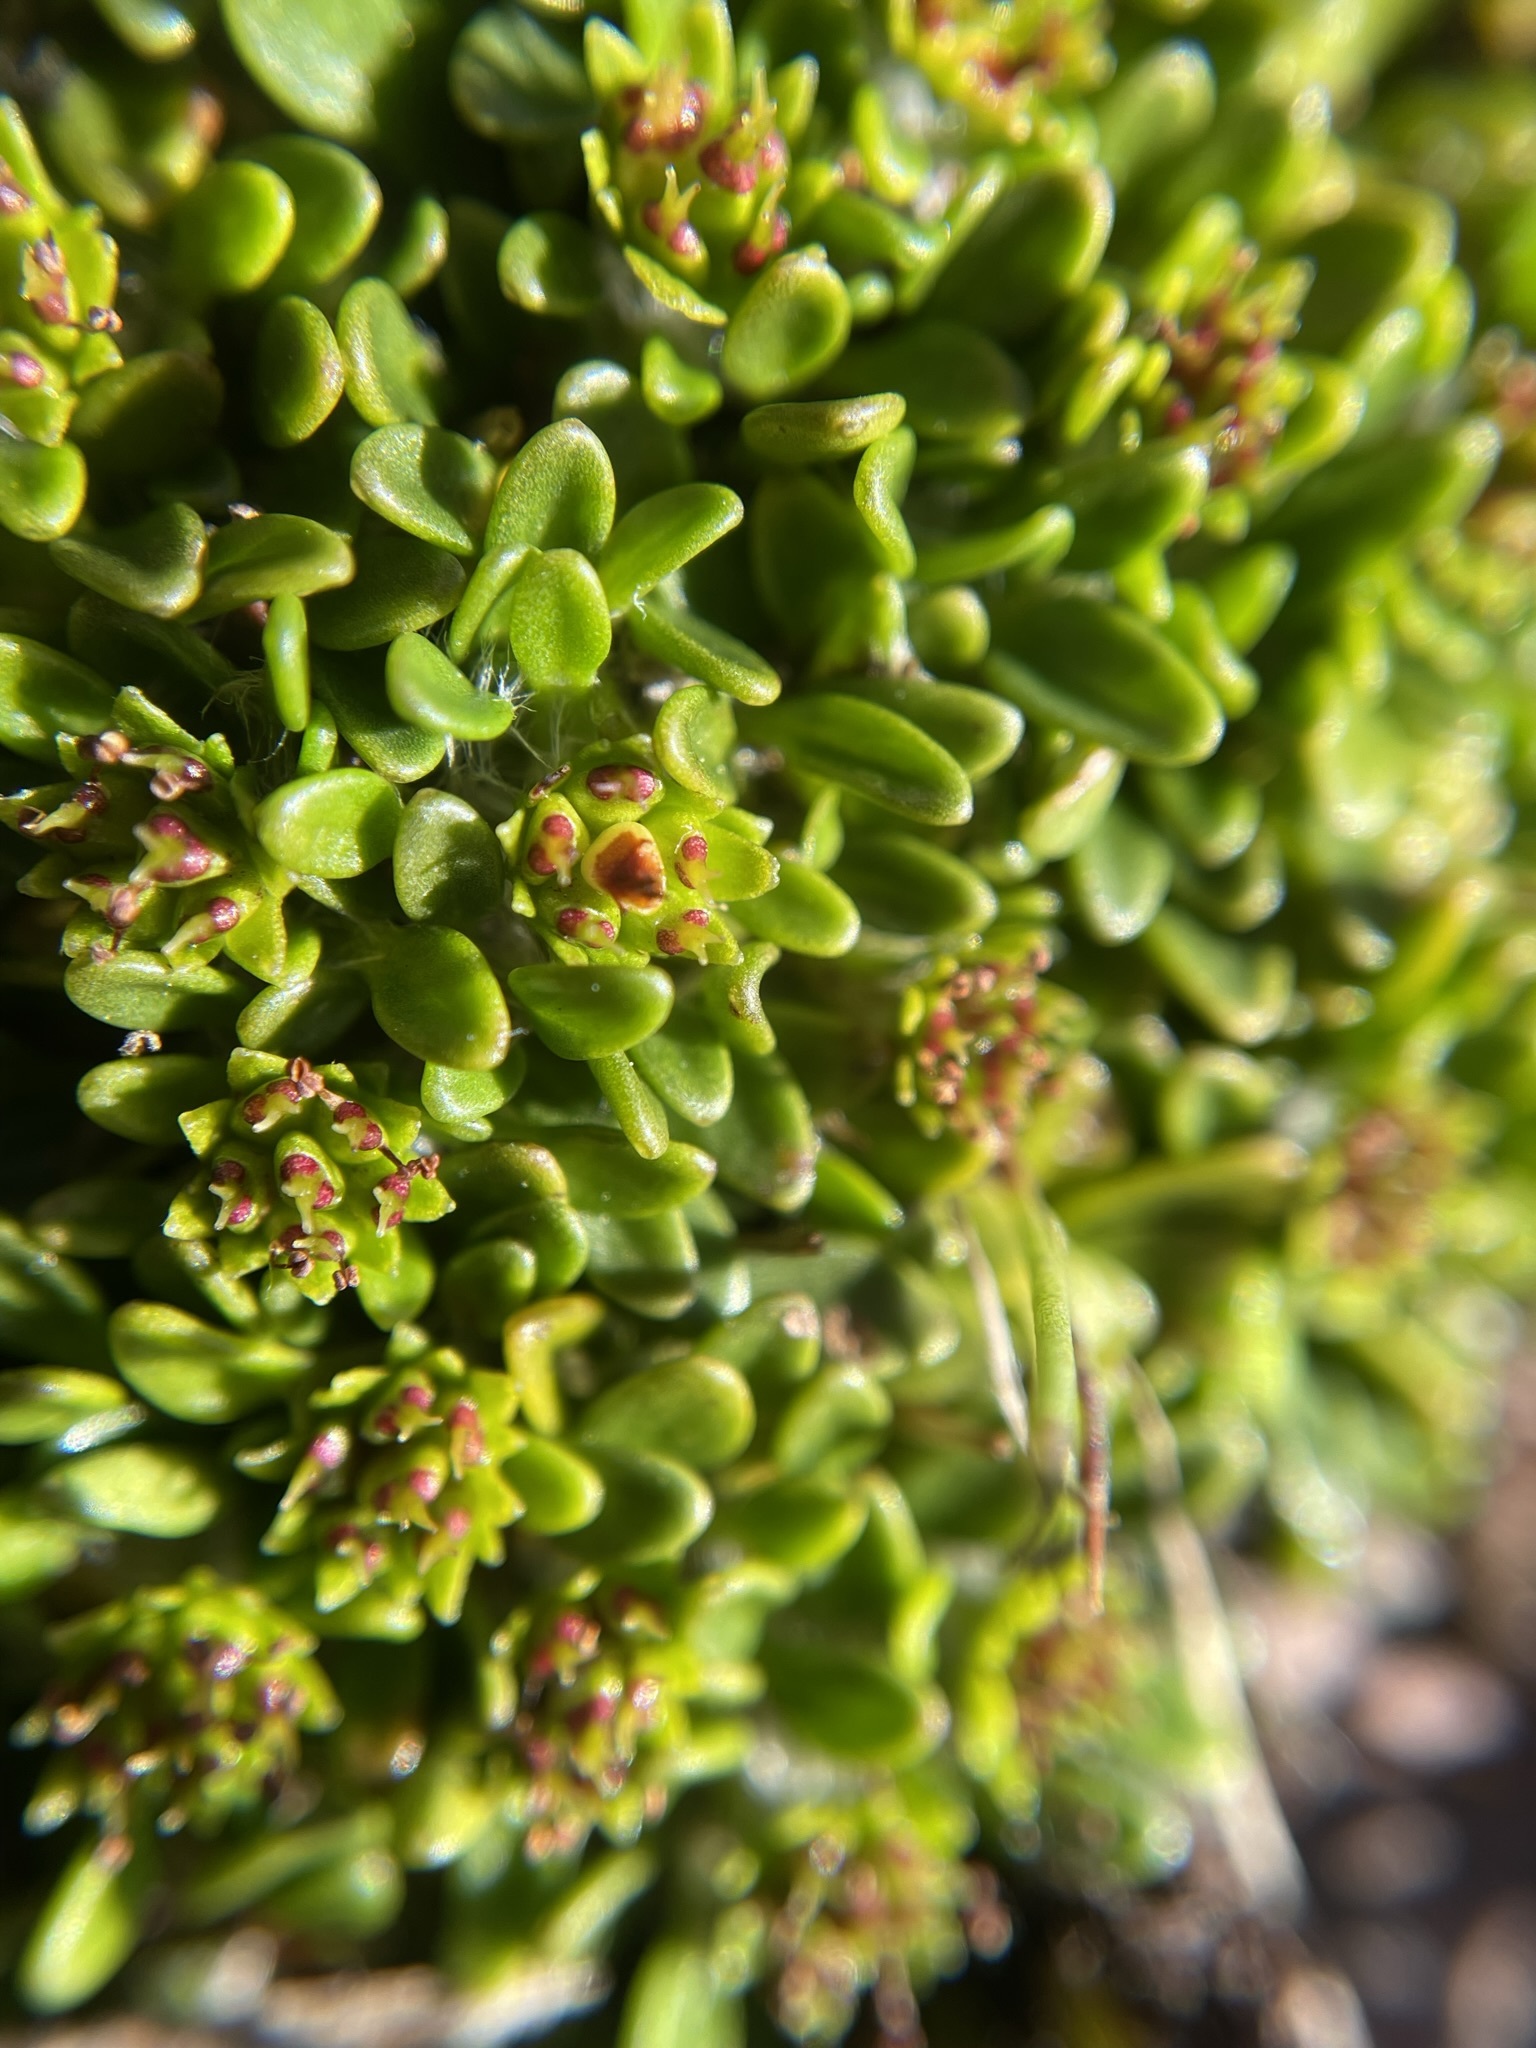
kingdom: Plantae
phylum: Tracheophyta
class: Magnoliopsida
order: Apiales
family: Apiaceae
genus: Actinotus
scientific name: Actinotus suffocatus
